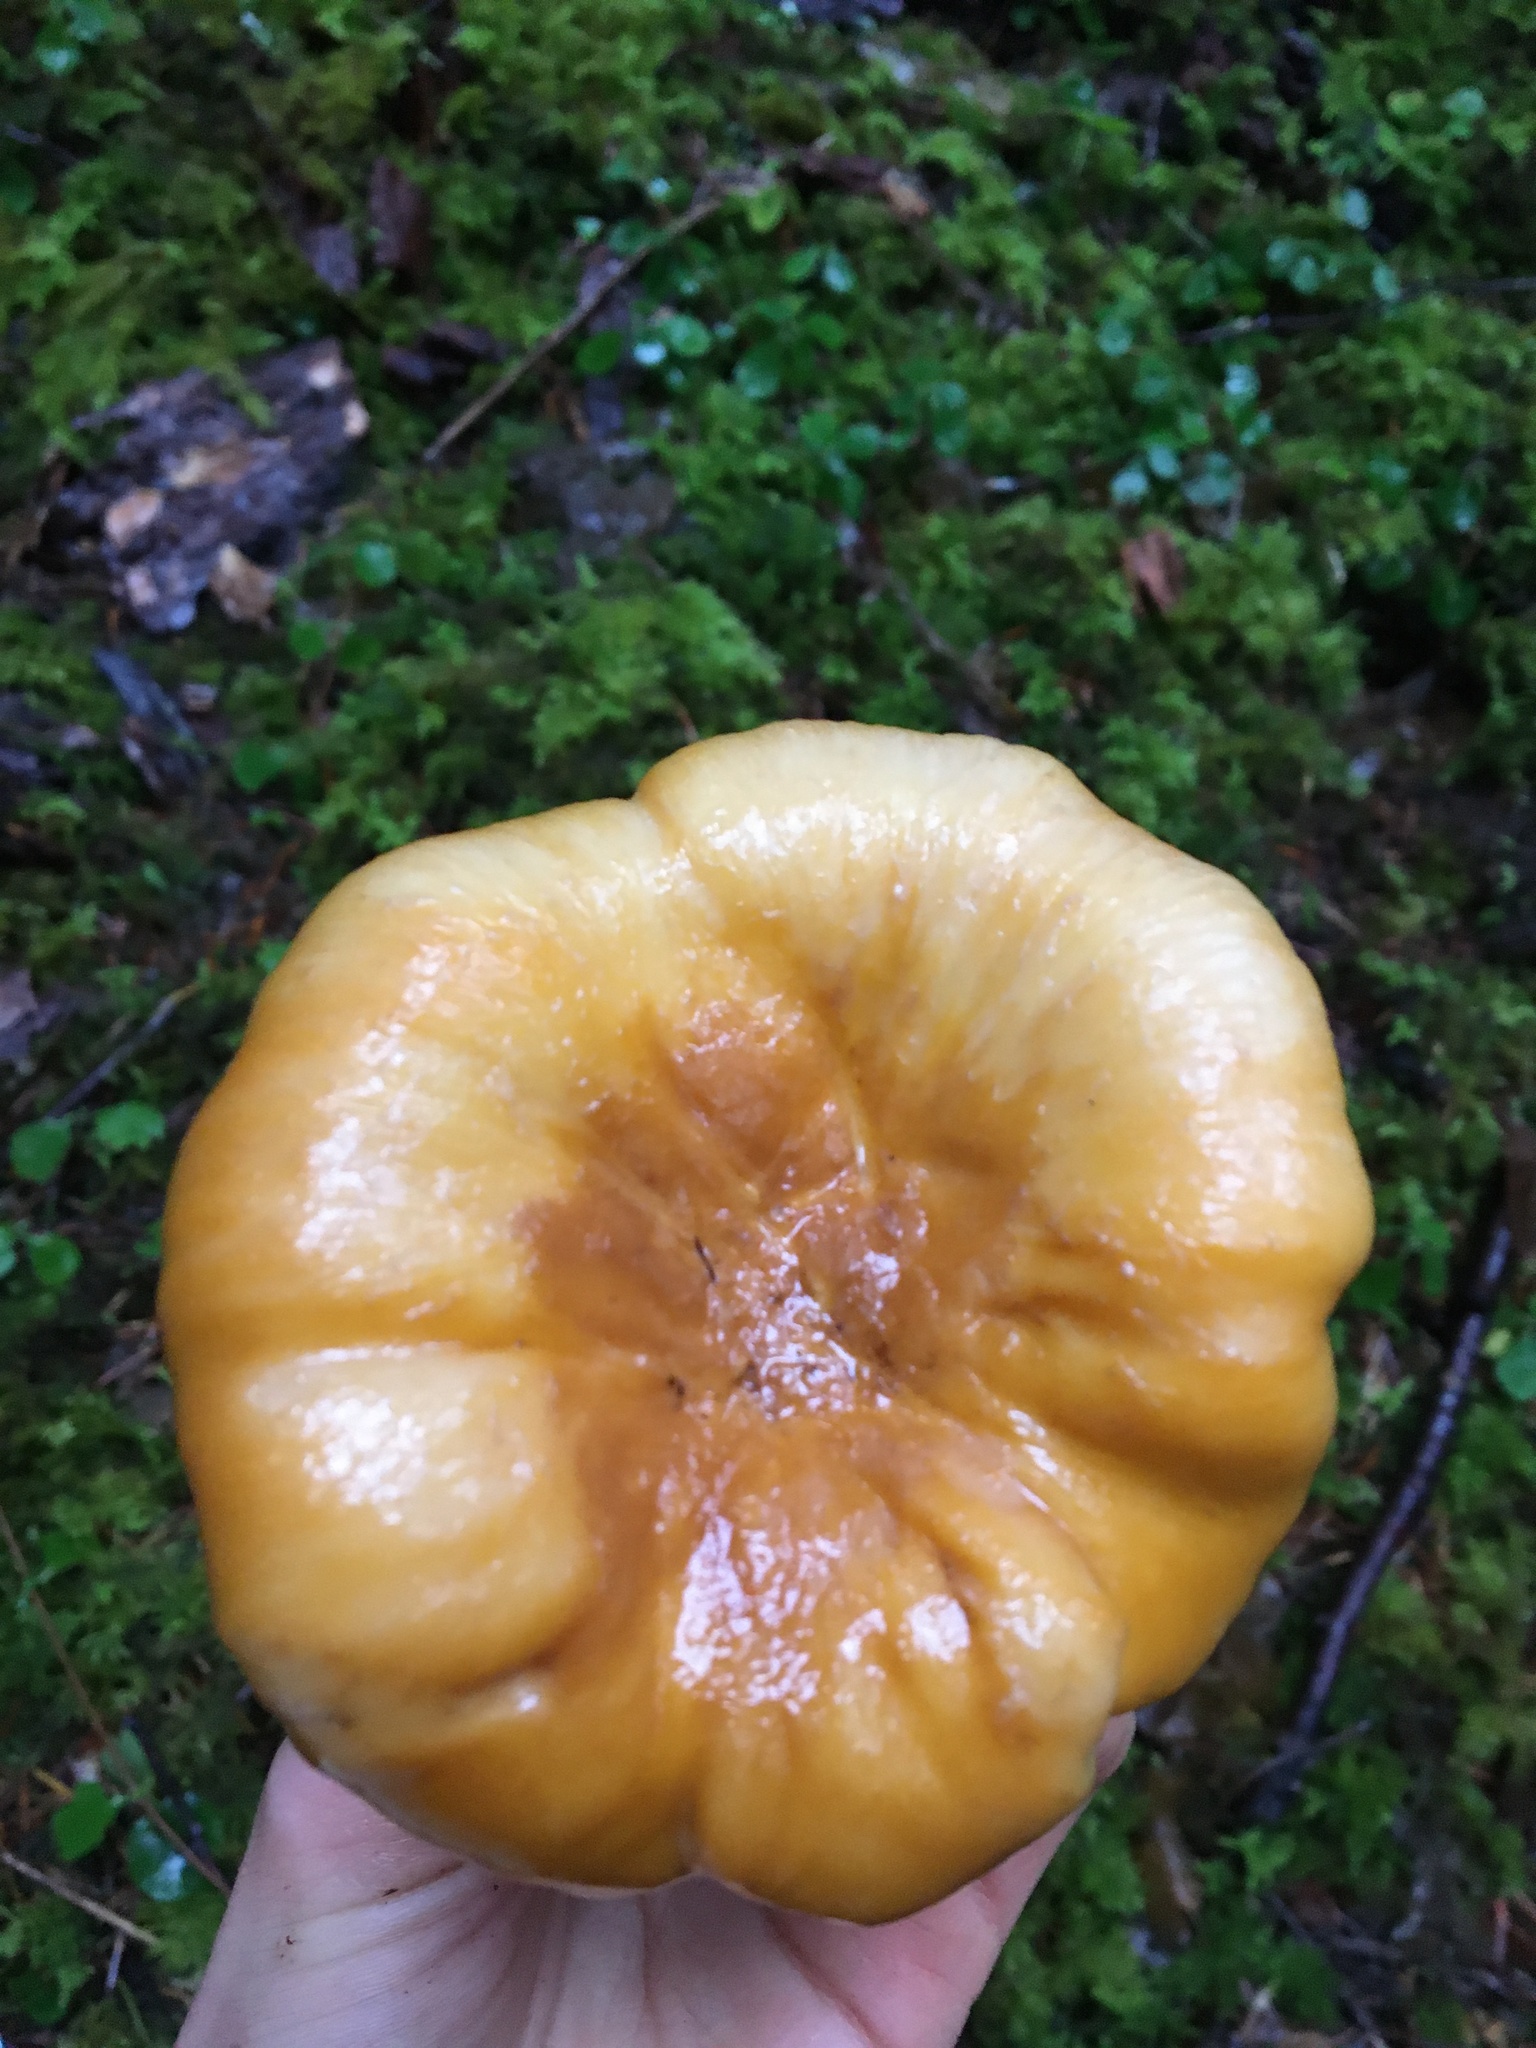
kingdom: Fungi
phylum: Basidiomycota
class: Agaricomycetes
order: Cantharellales
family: Hydnaceae
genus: Cantharellus
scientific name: Cantharellus formosus
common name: Pacific golden chanterelle
